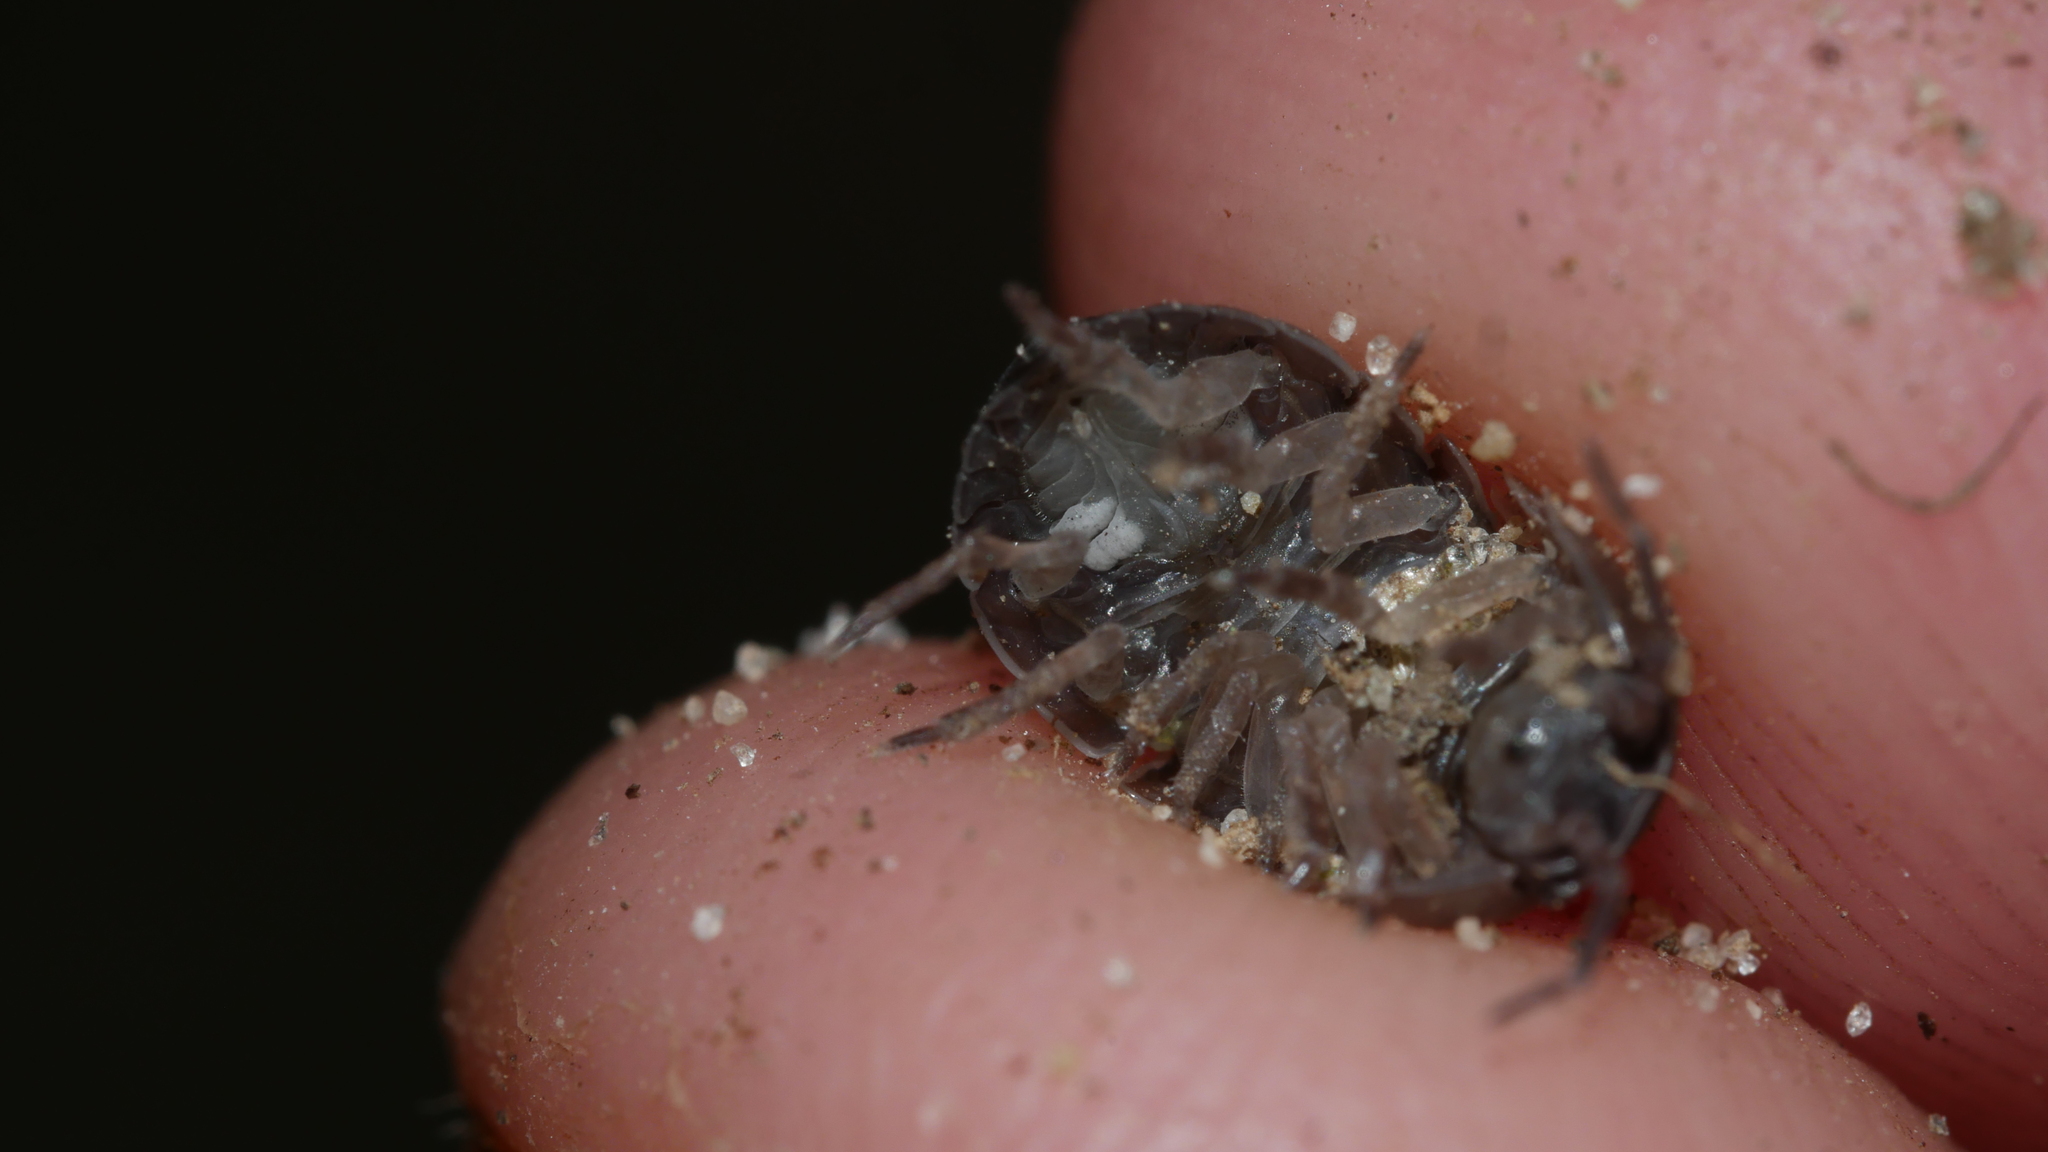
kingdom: Animalia
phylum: Arthropoda
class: Malacostraca
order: Isopoda
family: Armadillidiidae
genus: Armadillidium
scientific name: Armadillidium vulgare
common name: Common pill woodlouse
